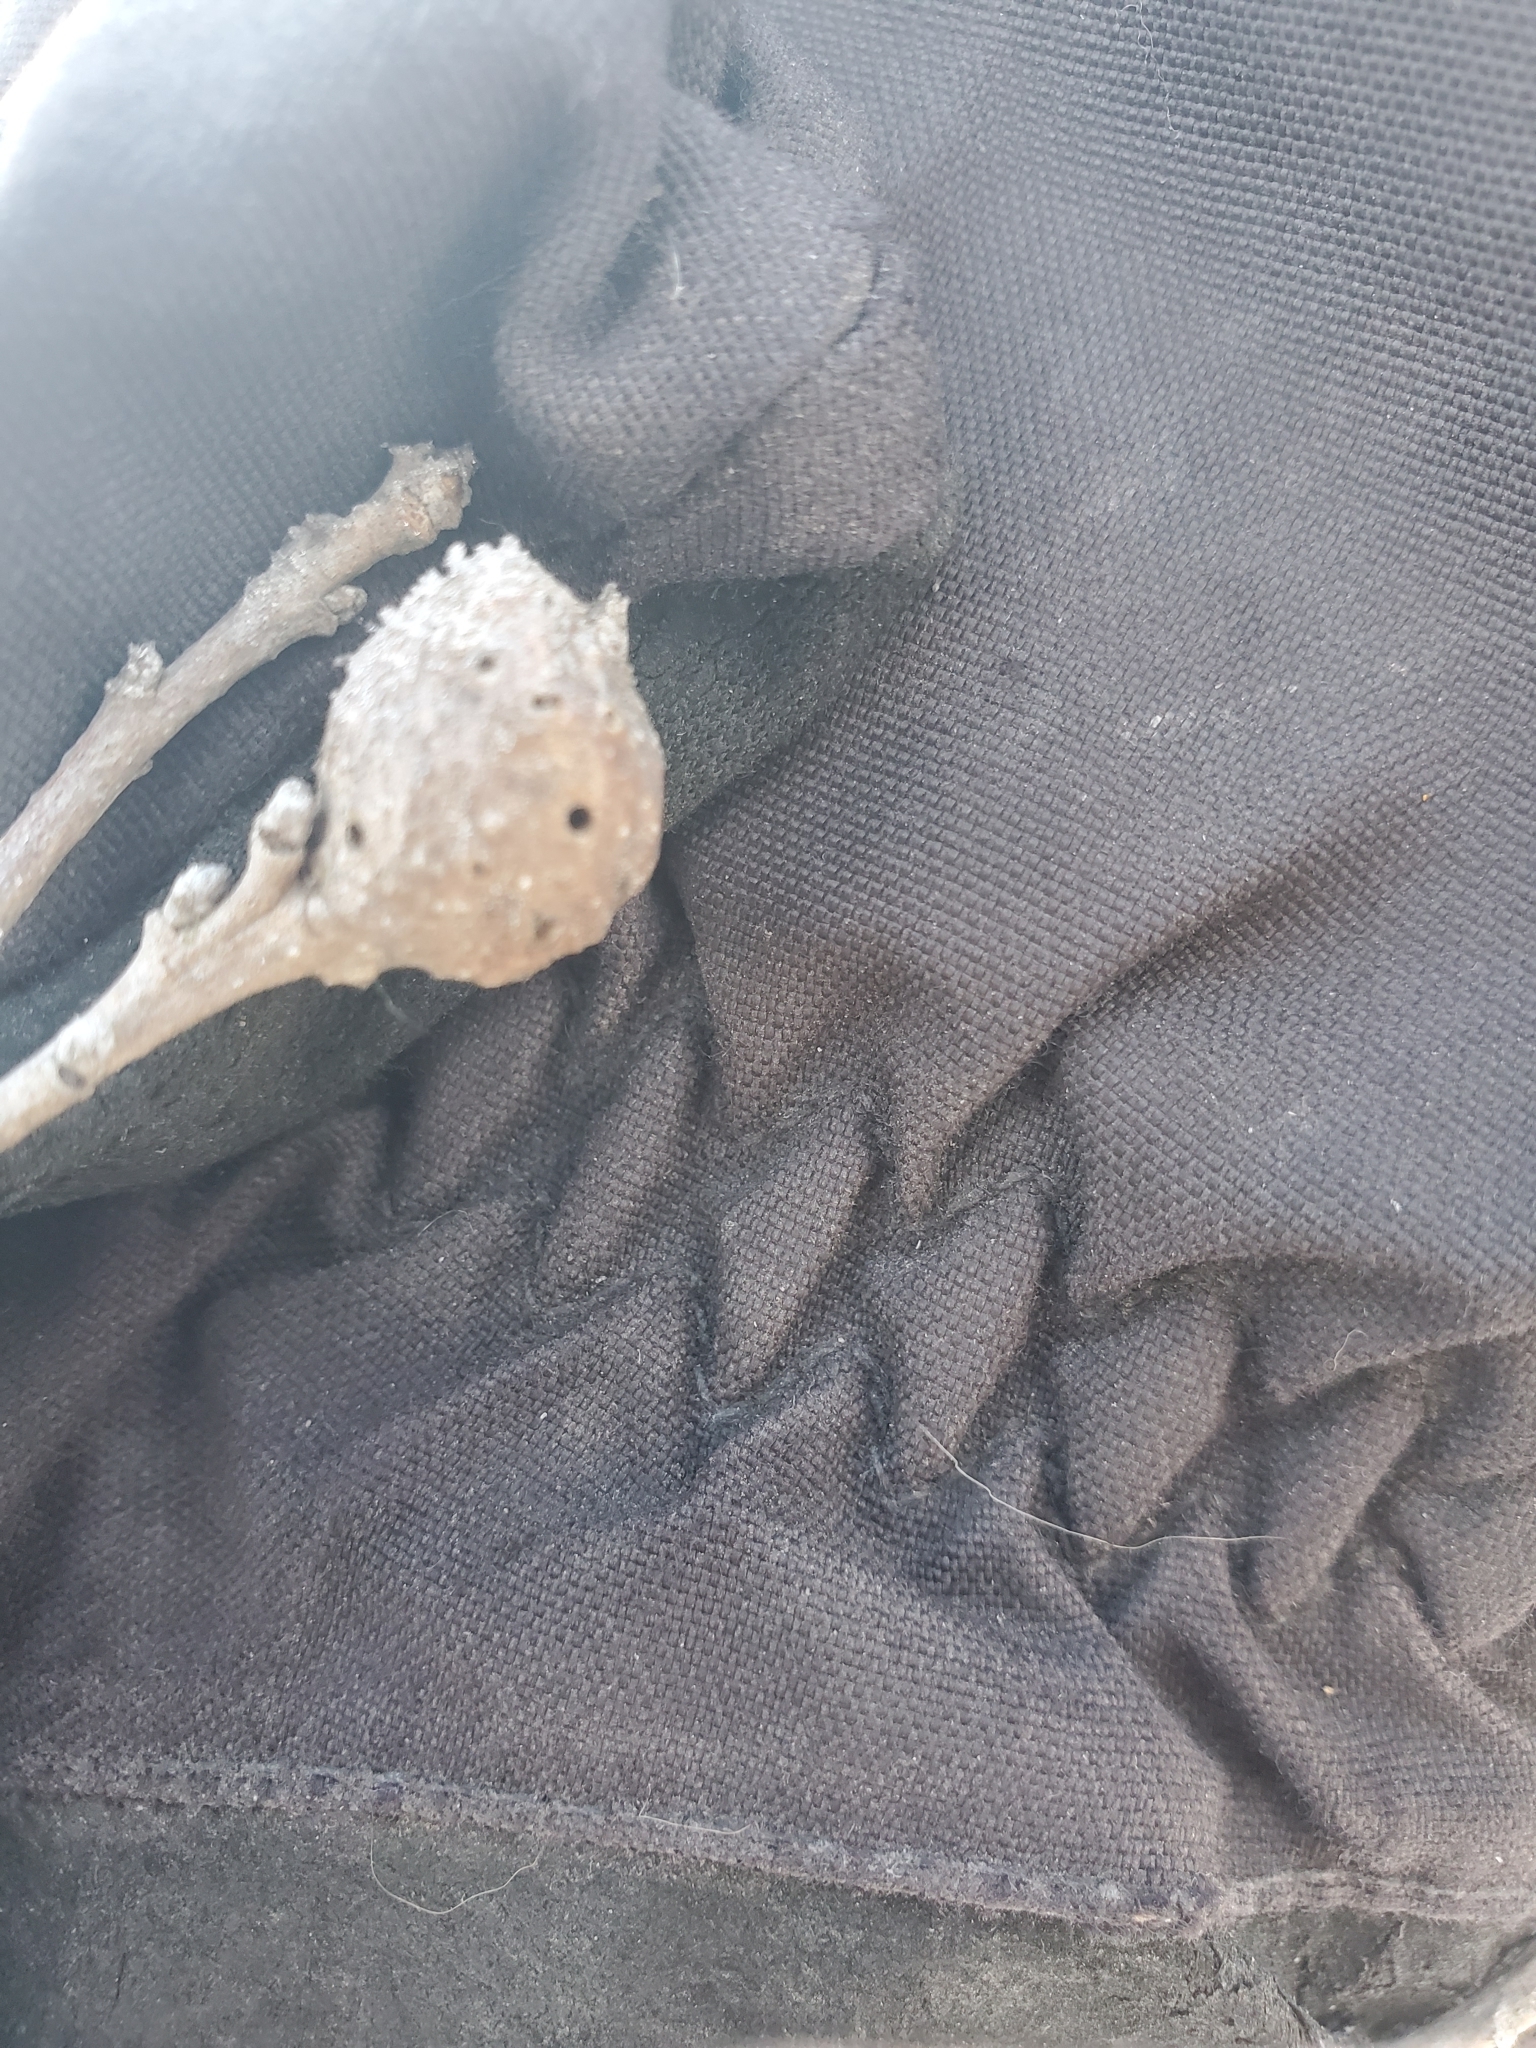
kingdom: Animalia
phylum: Arthropoda
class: Insecta
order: Hymenoptera
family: Cynipidae
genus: Andricus
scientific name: Andricus
